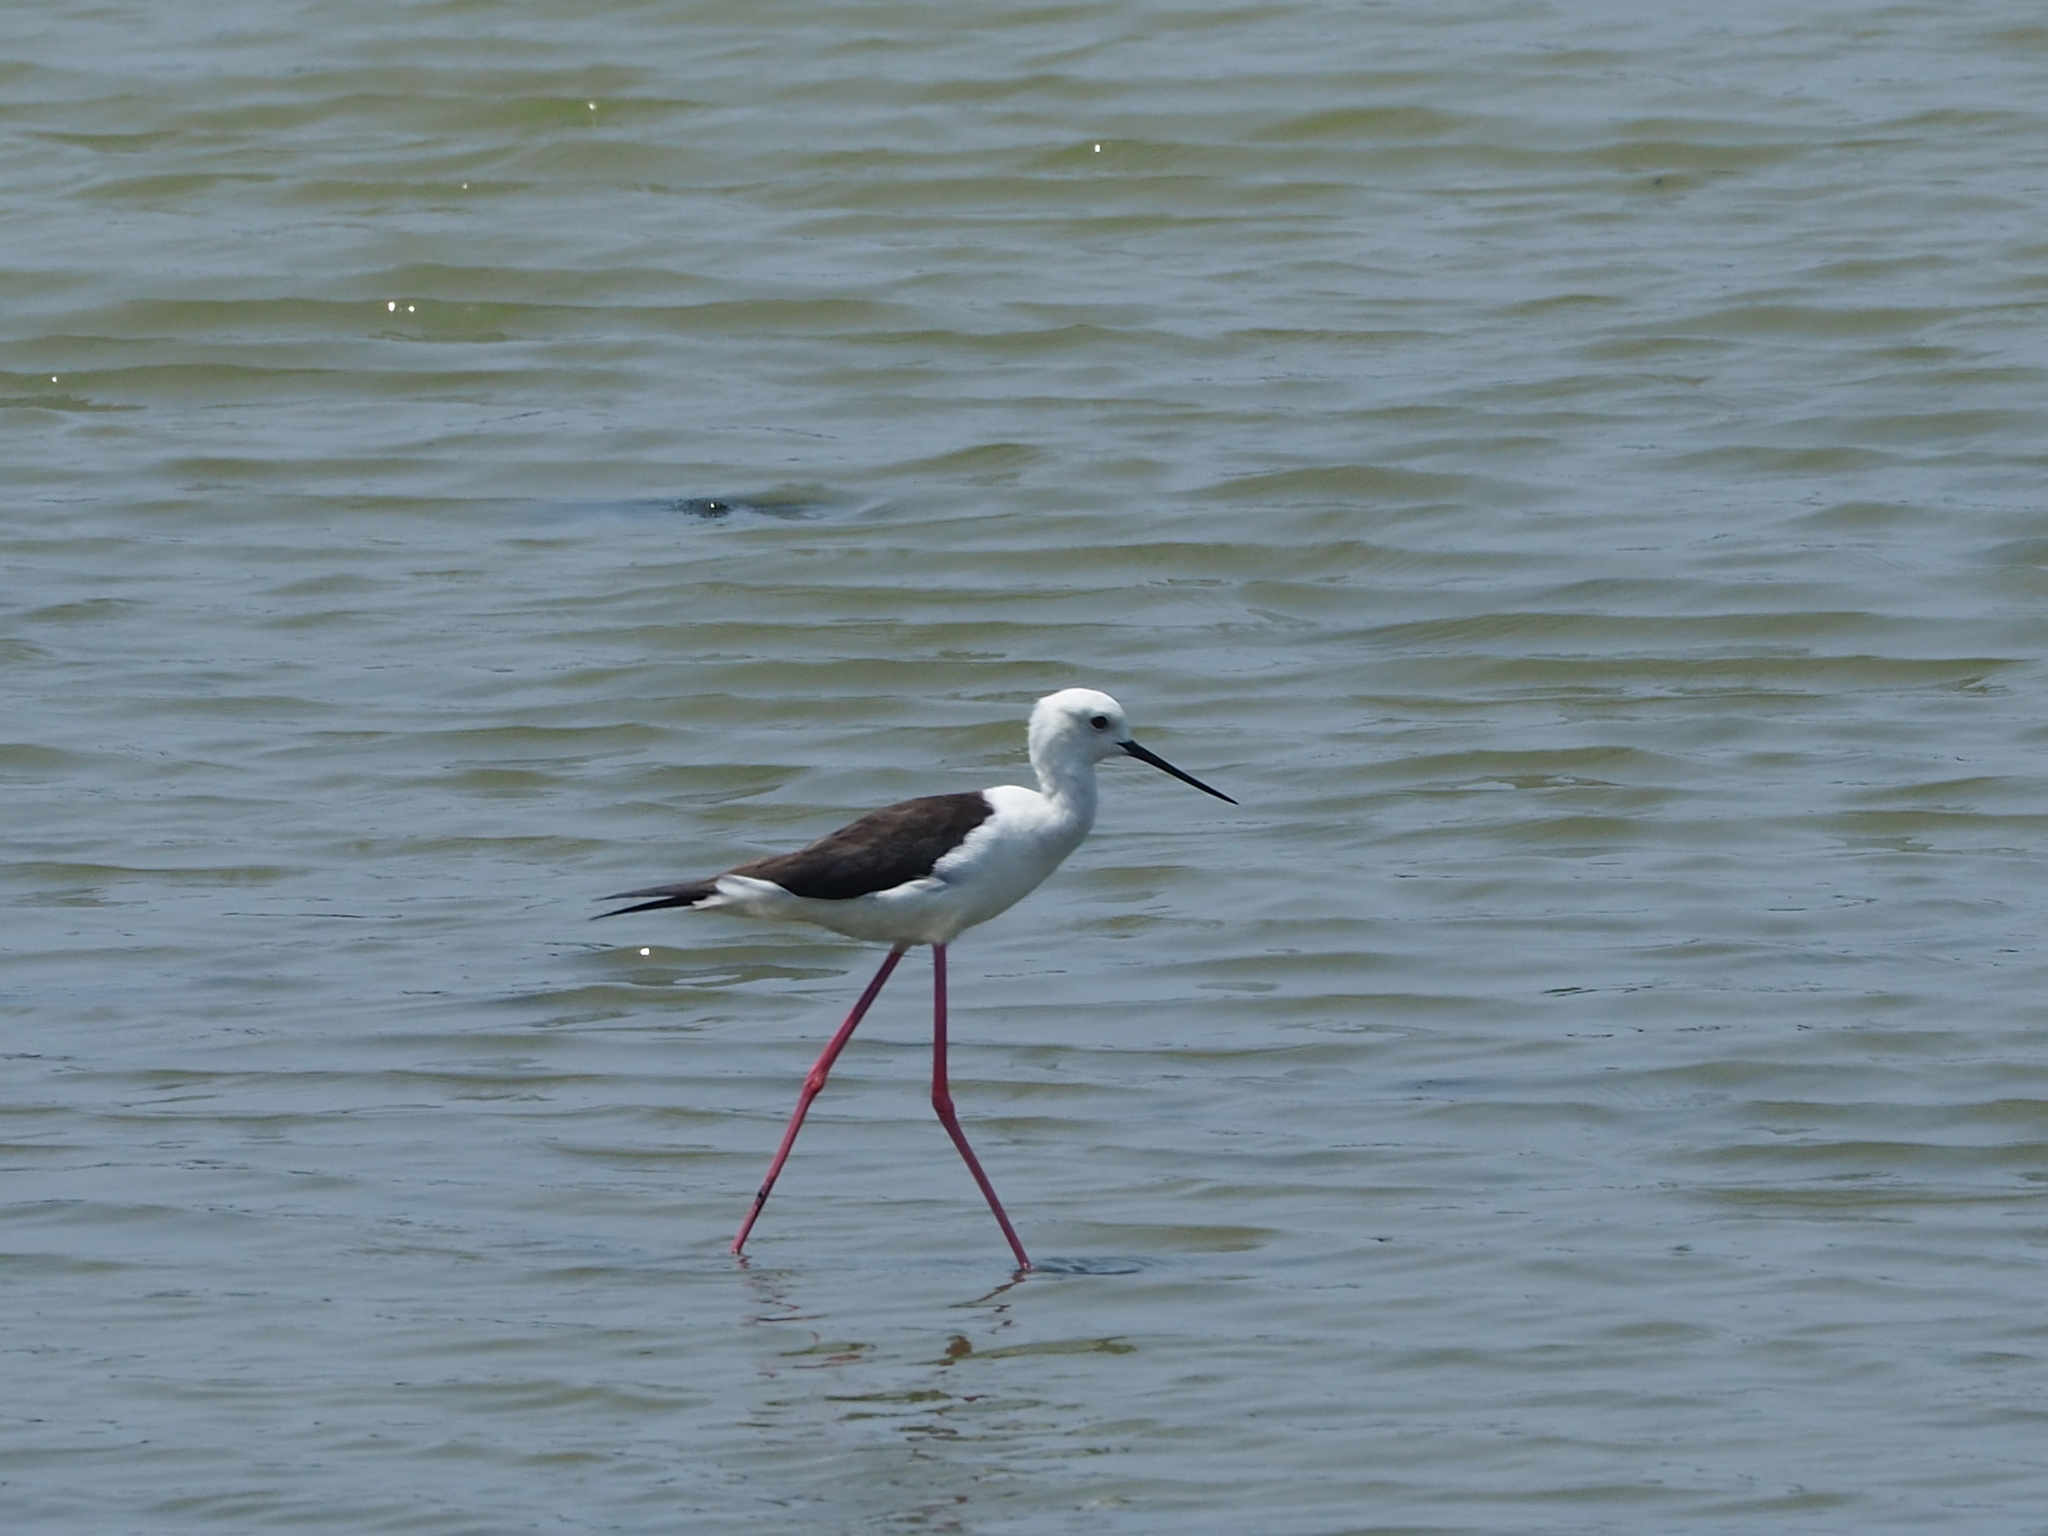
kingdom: Animalia
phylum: Chordata
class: Aves
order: Charadriiformes
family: Recurvirostridae
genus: Himantopus
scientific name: Himantopus himantopus
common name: Black-winged stilt
